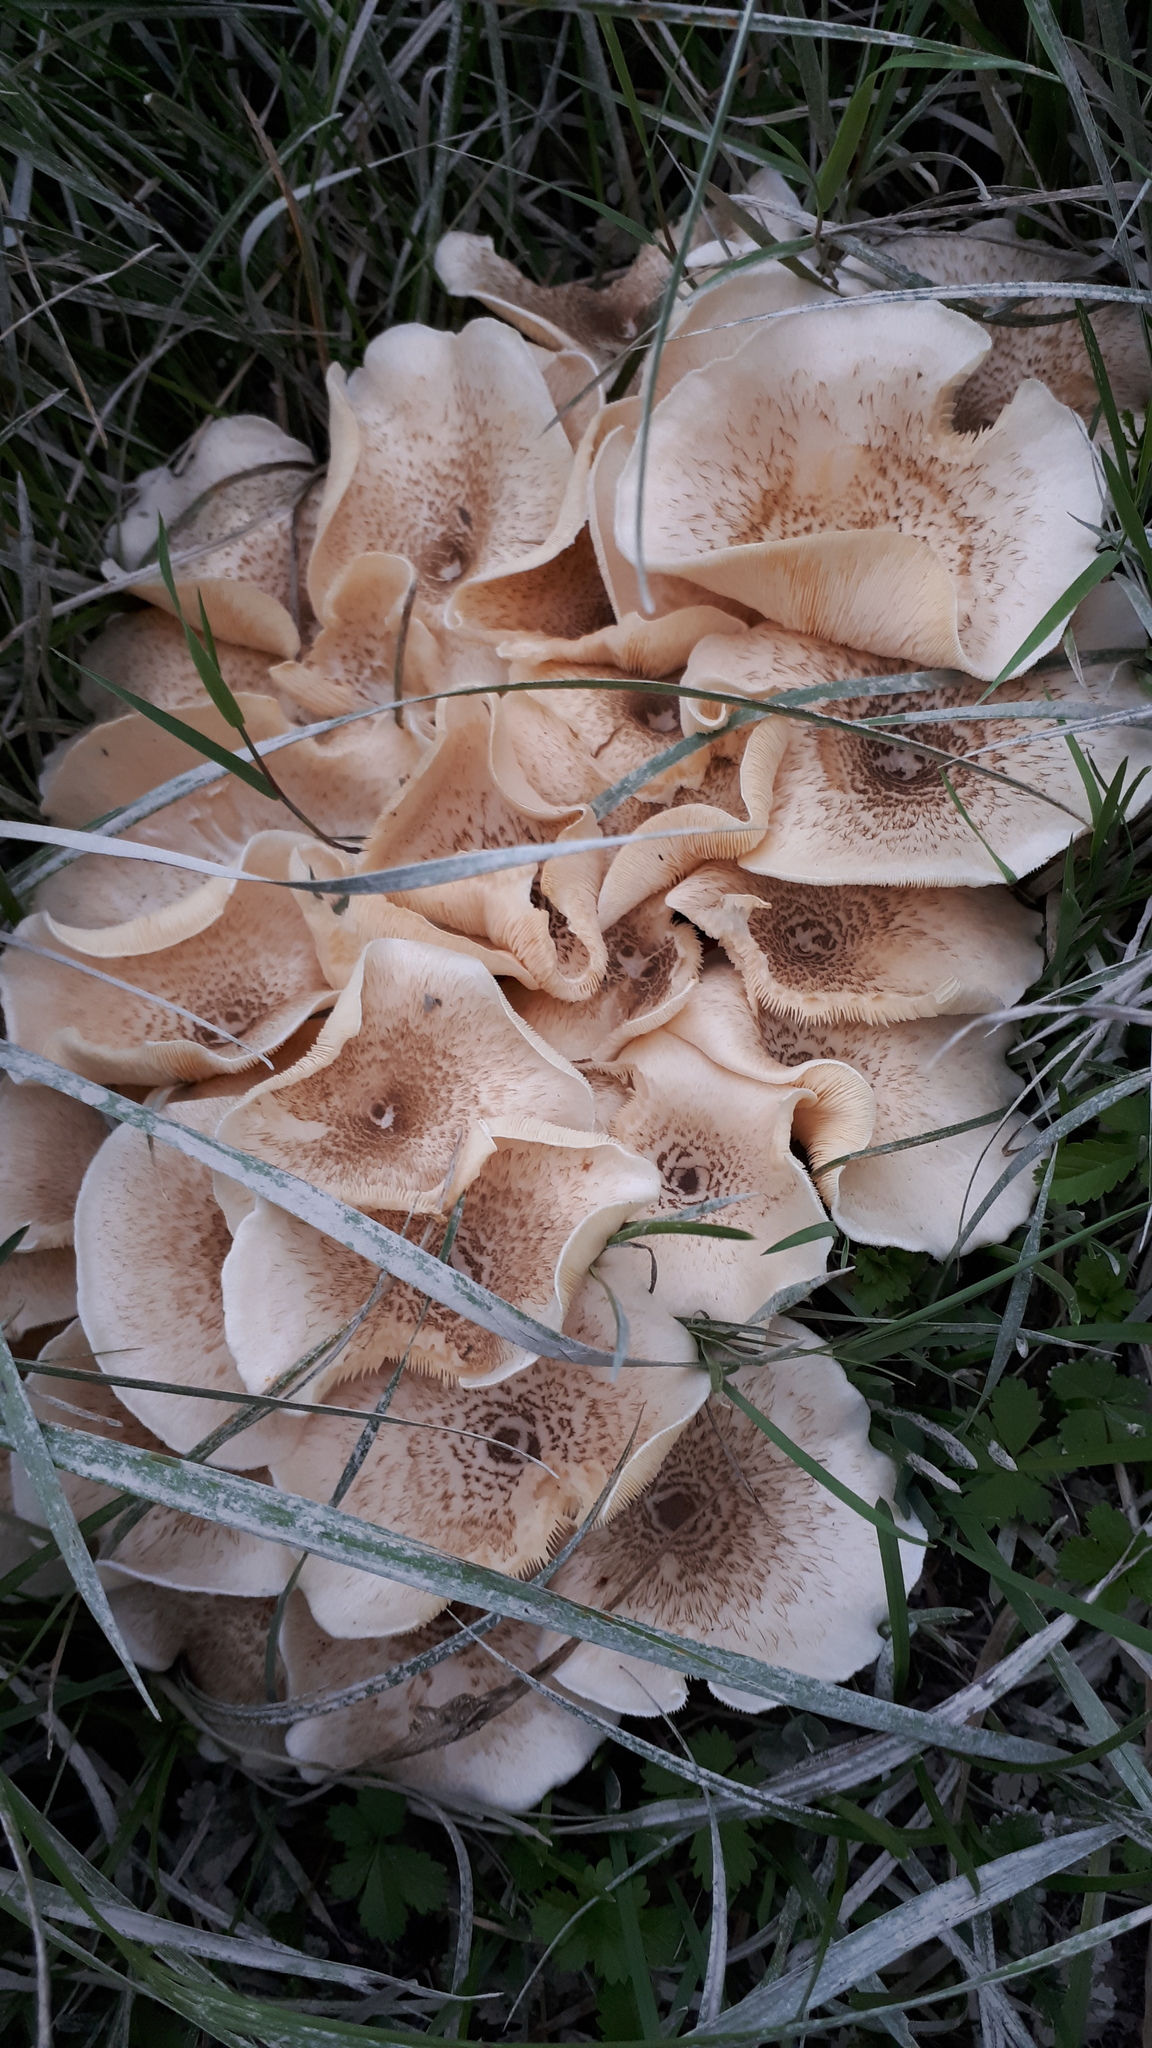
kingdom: Fungi
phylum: Basidiomycota
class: Agaricomycetes
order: Polyporales
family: Polyporaceae
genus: Lentinus
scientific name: Lentinus tigrinus
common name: Tiger sawgill
